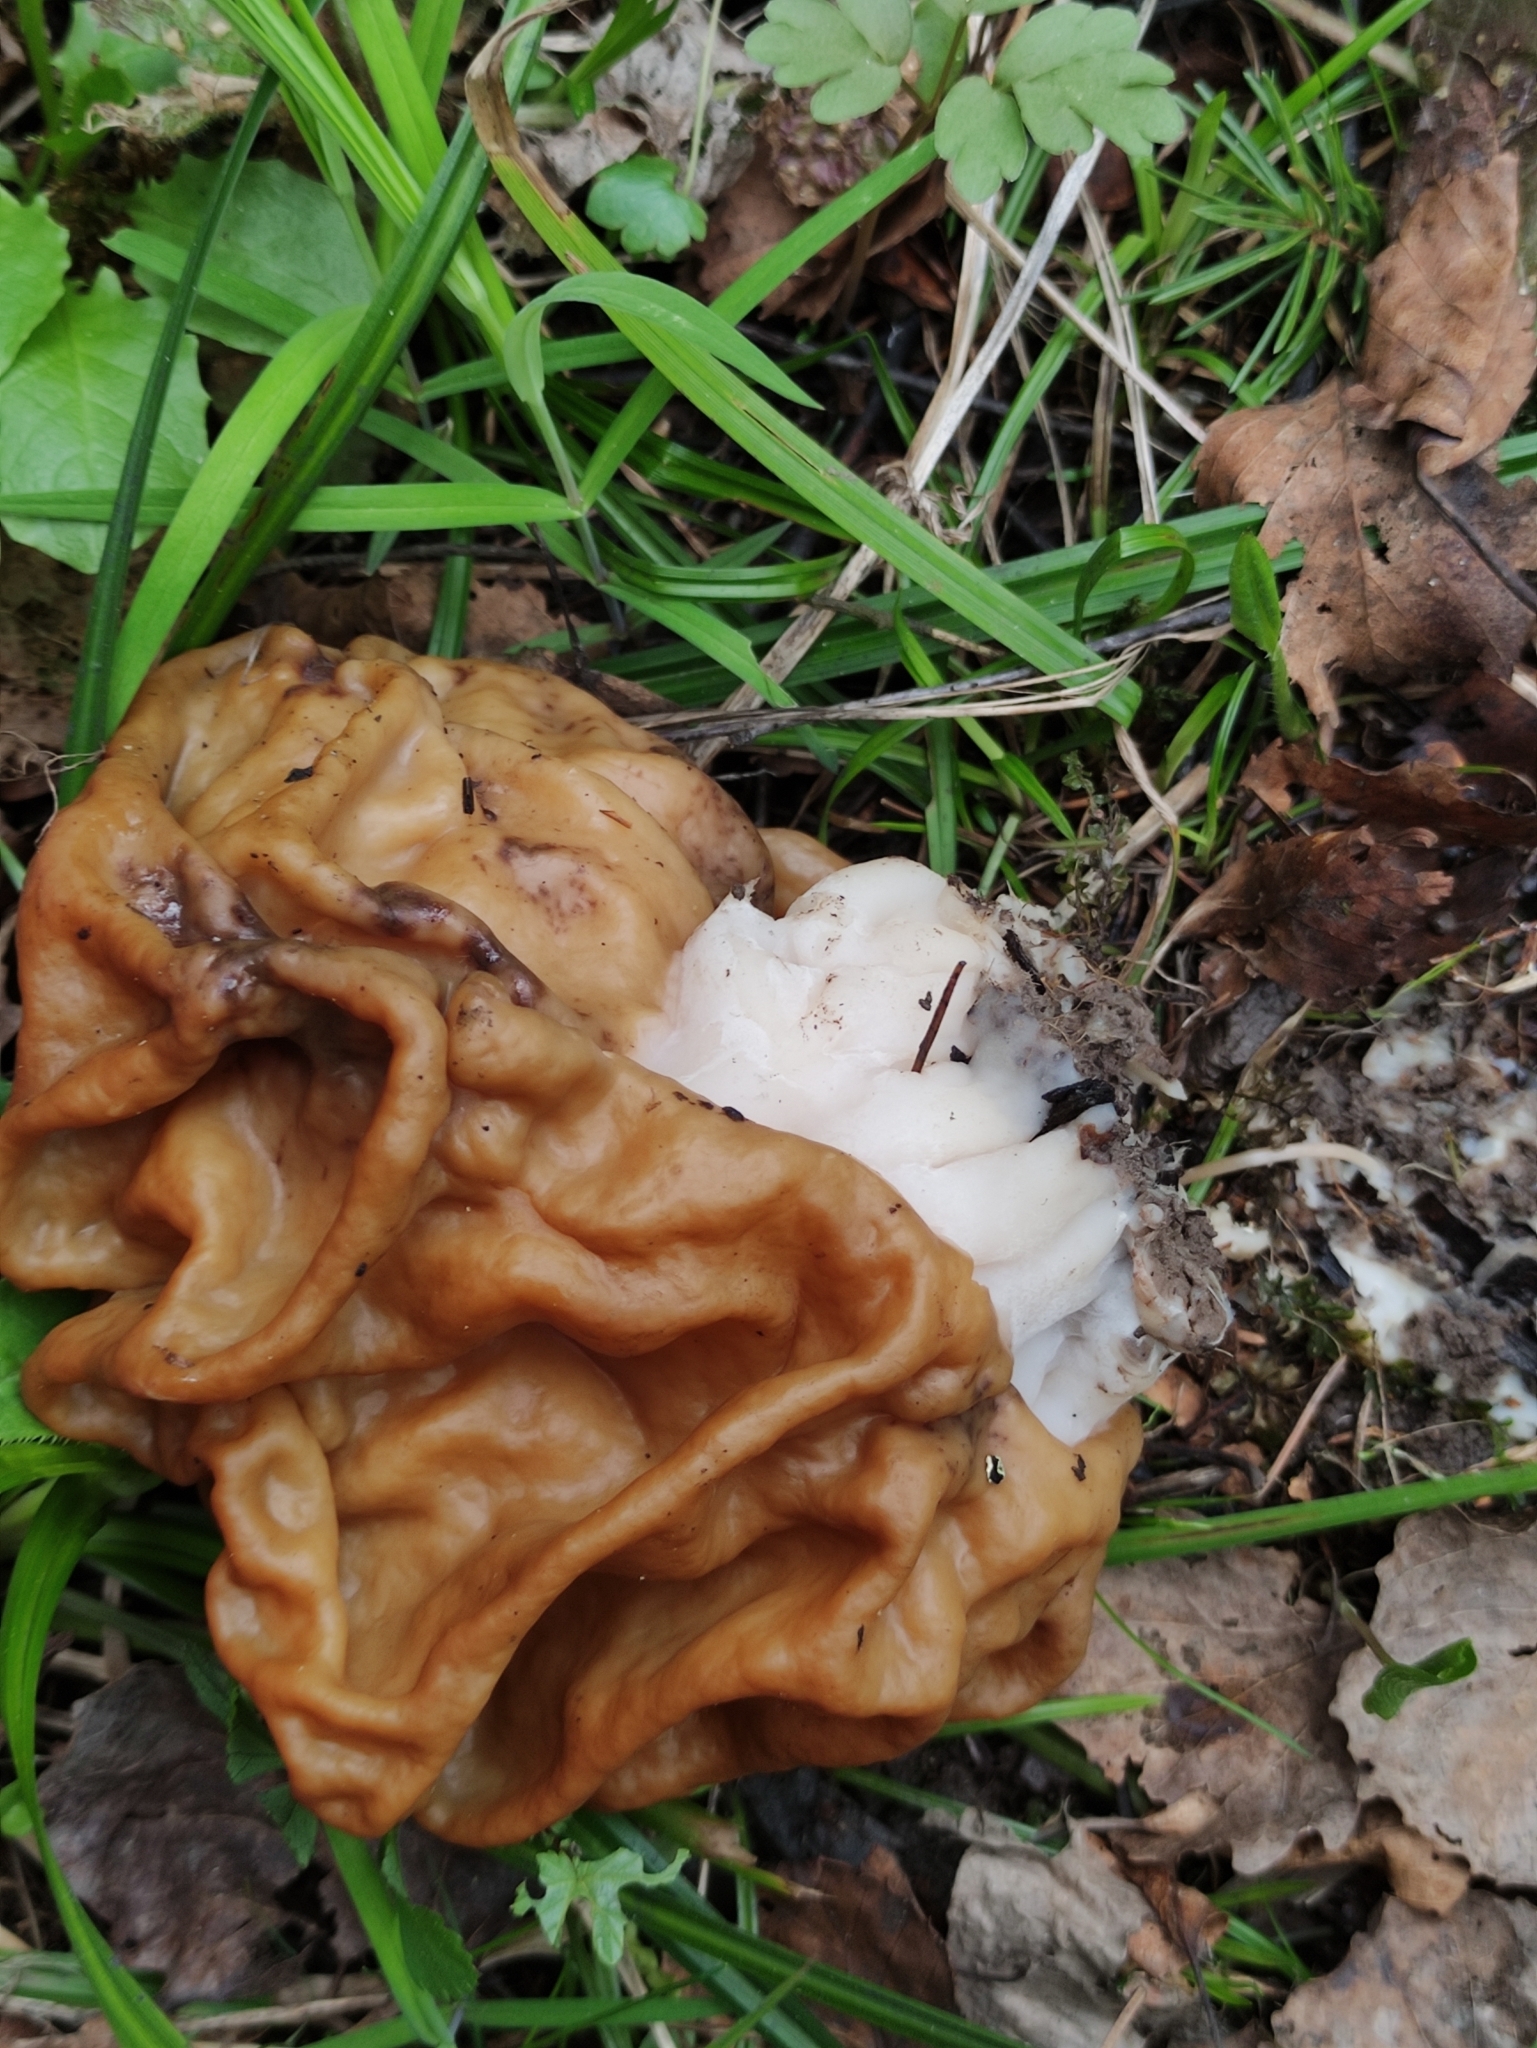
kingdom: Fungi
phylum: Ascomycota
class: Pezizomycetes
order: Pezizales
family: Discinaceae
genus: Gyromitra
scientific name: Gyromitra gigas
